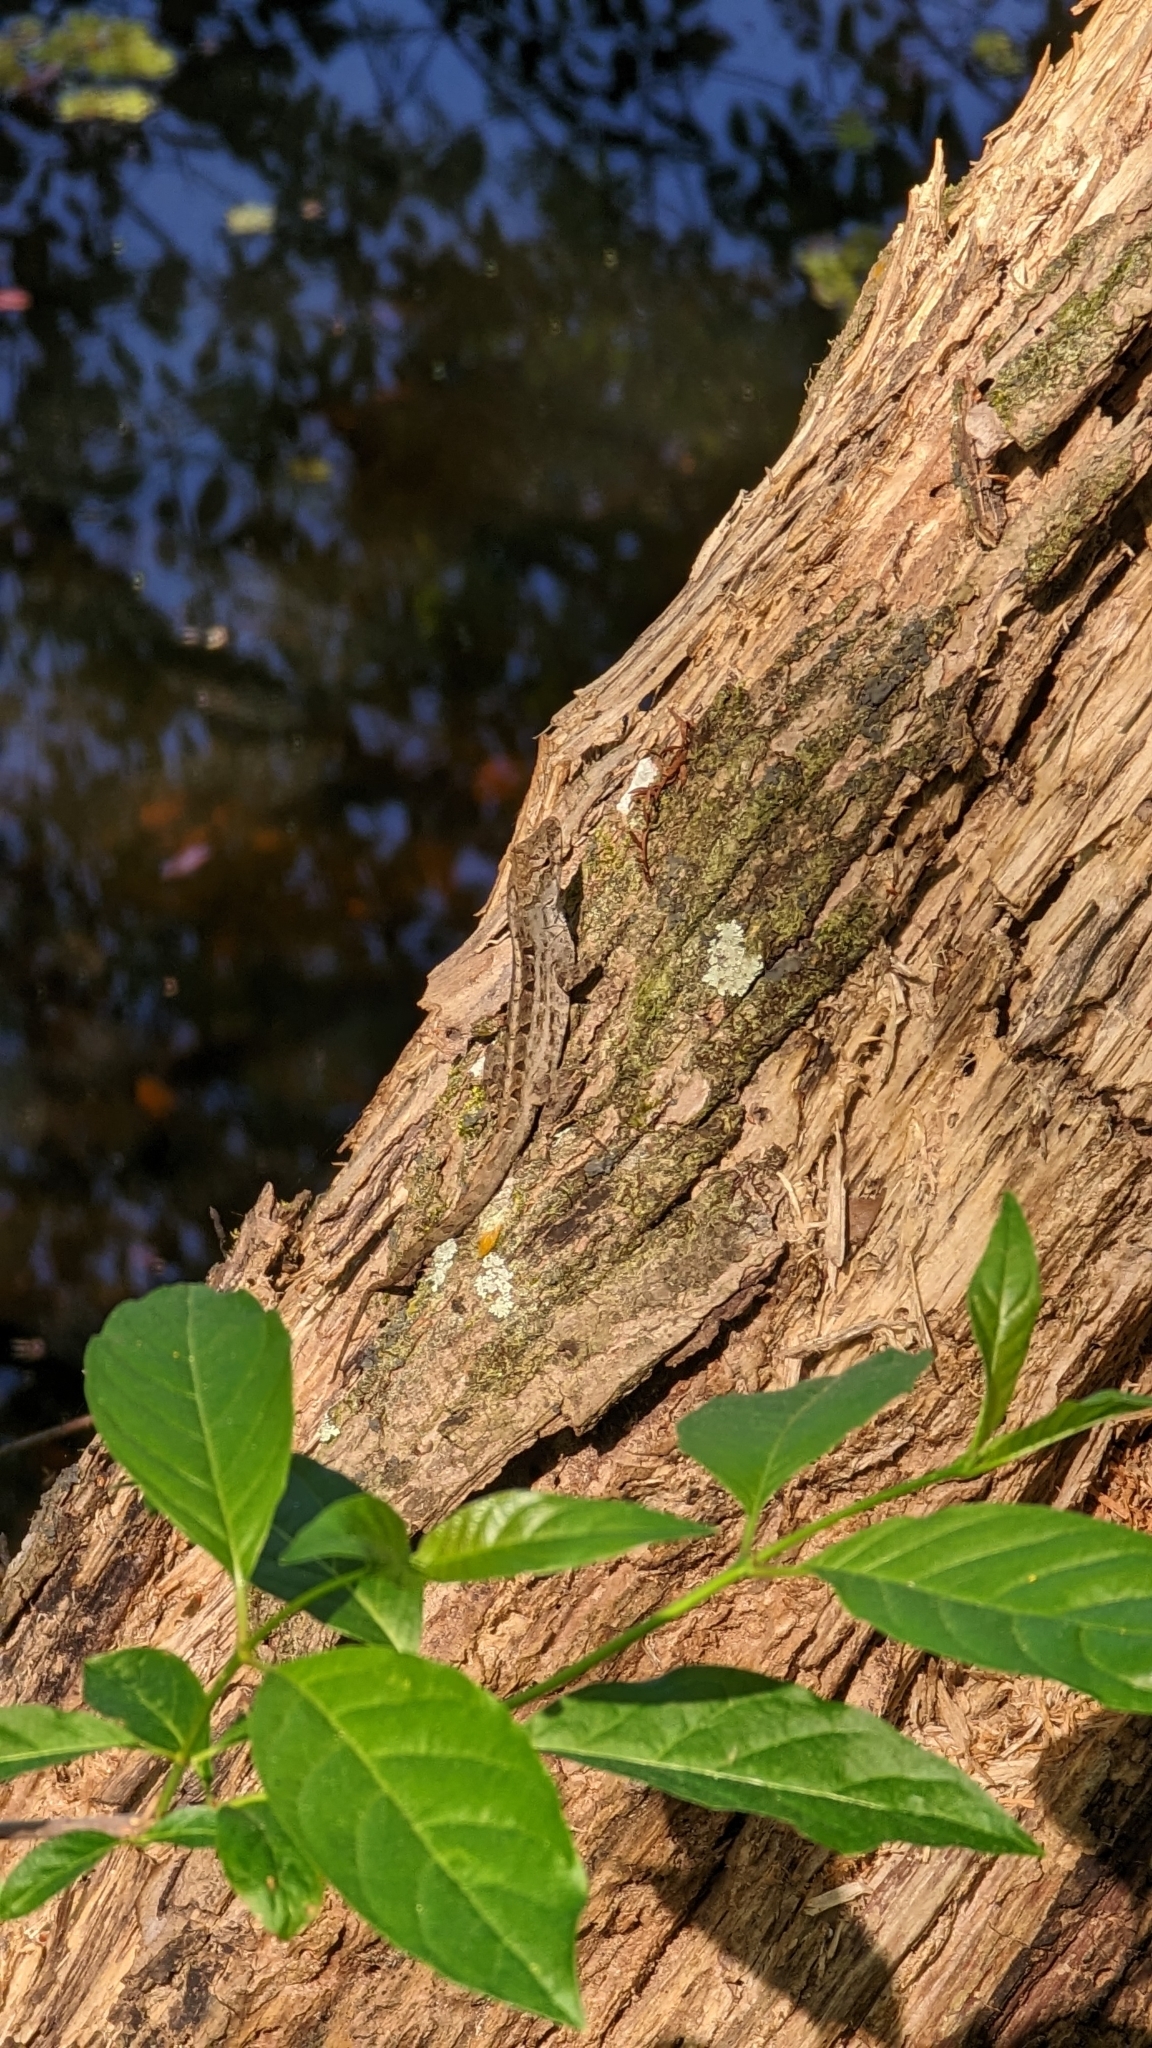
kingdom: Animalia
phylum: Chordata
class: Squamata
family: Dactyloidae
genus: Anolis
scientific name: Anolis sagrei
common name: Brown anole
